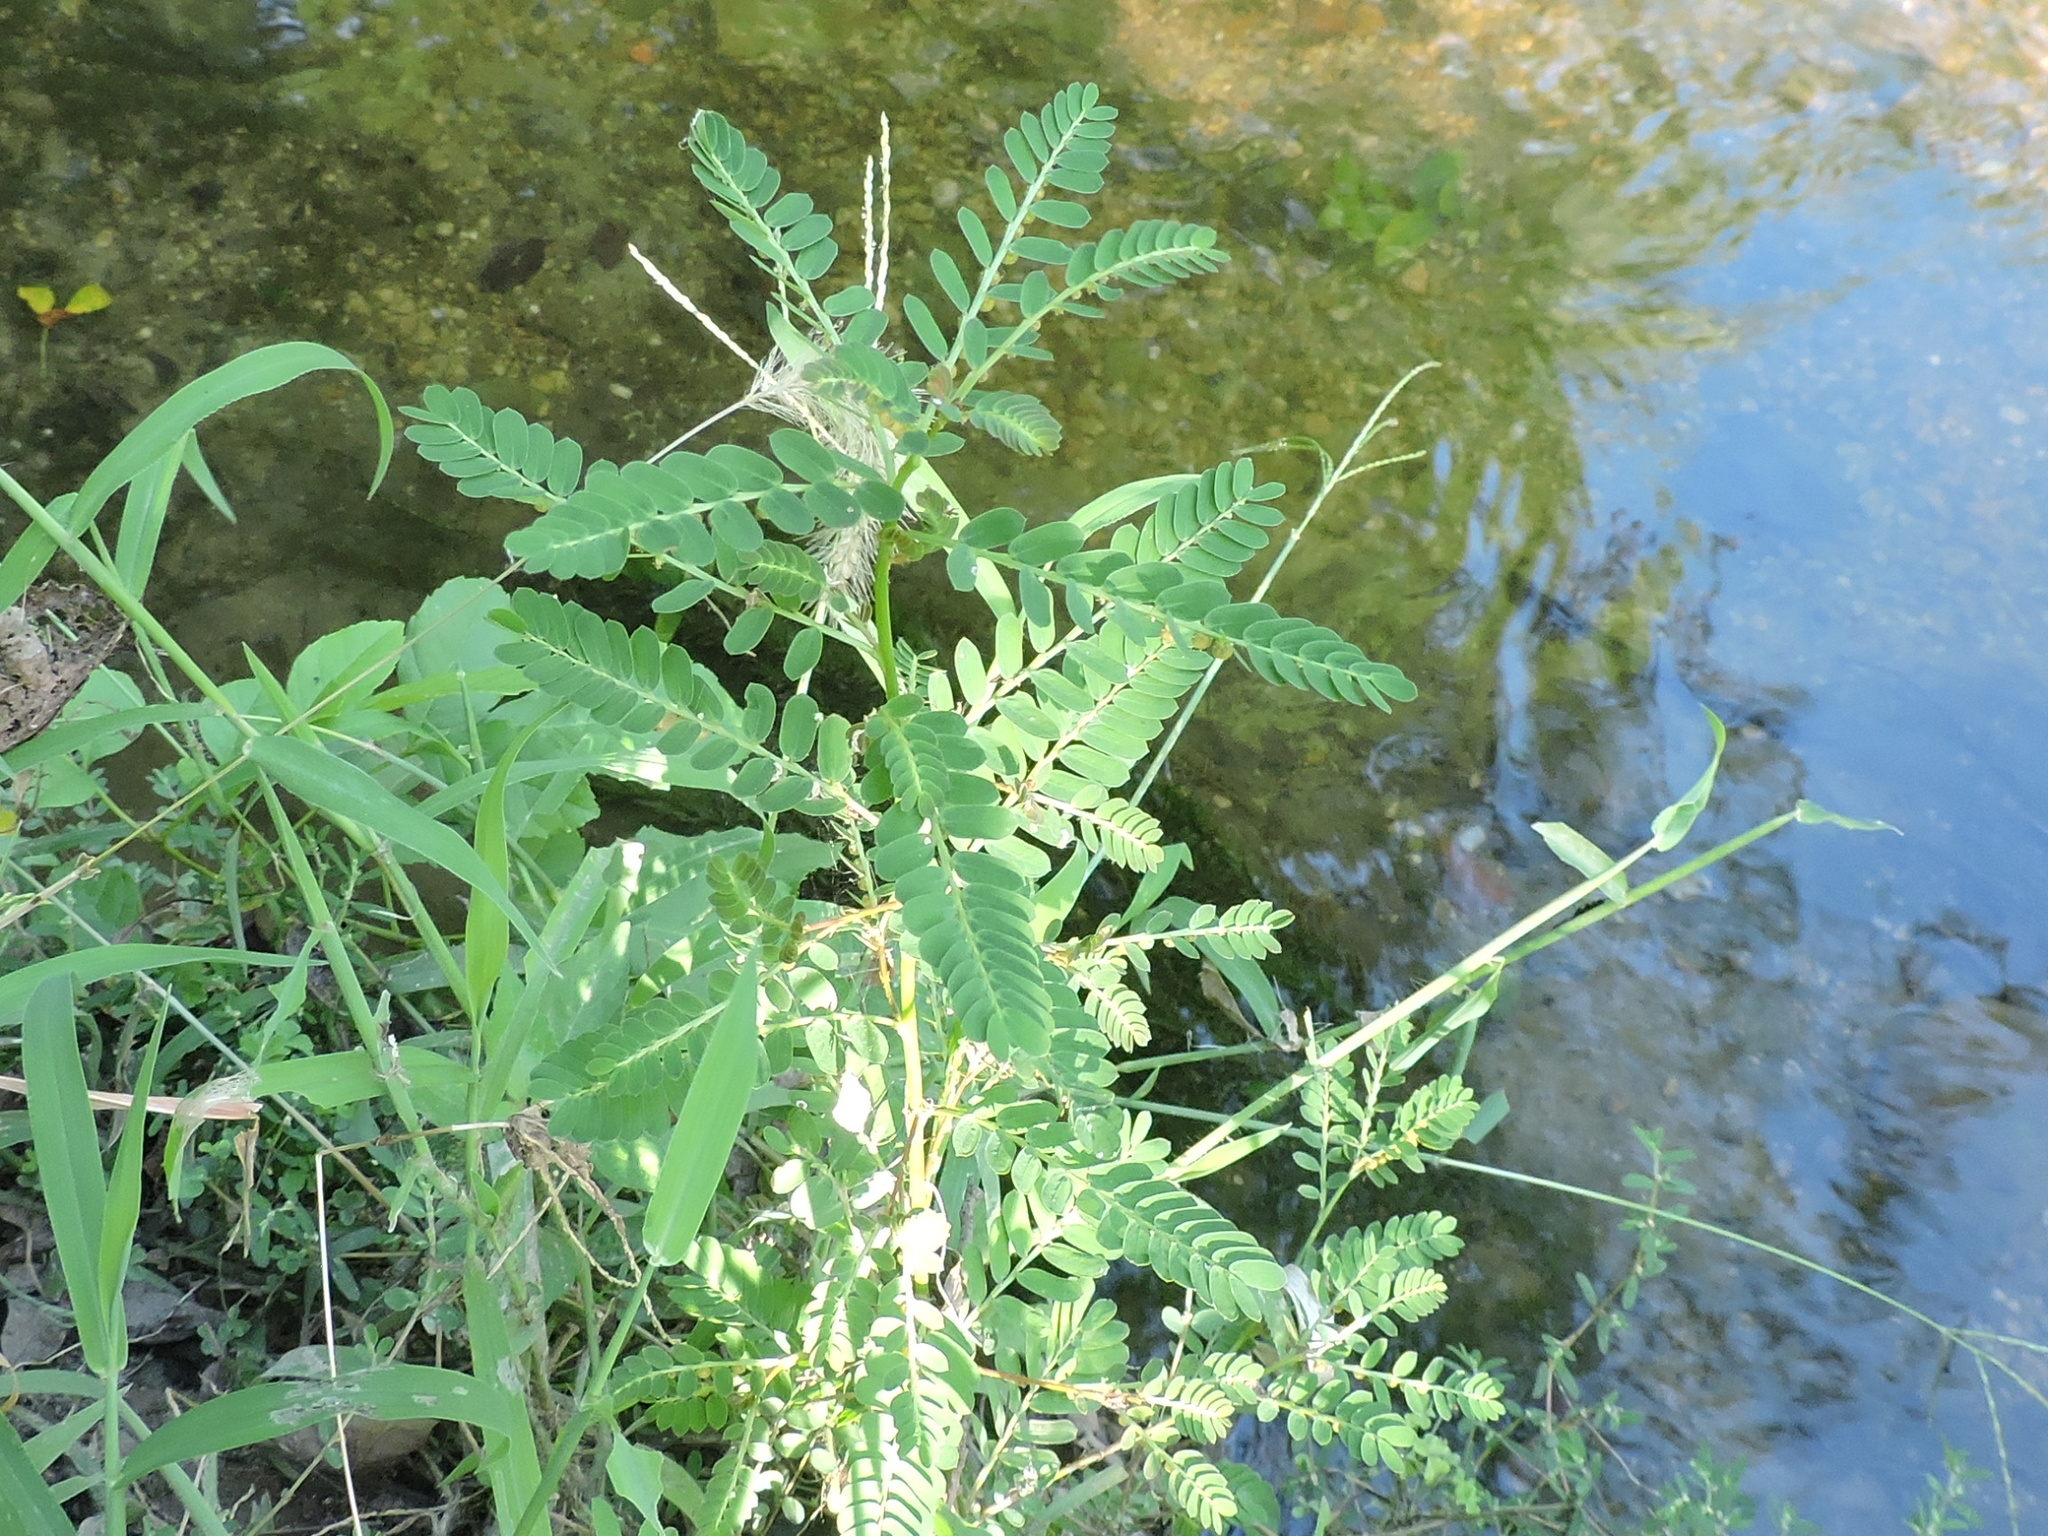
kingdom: Plantae
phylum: Tracheophyta
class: Magnoliopsida
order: Malpighiales
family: Phyllanthaceae
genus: Phyllanthus
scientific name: Phyllanthus urinaria
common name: Chamber bitter
